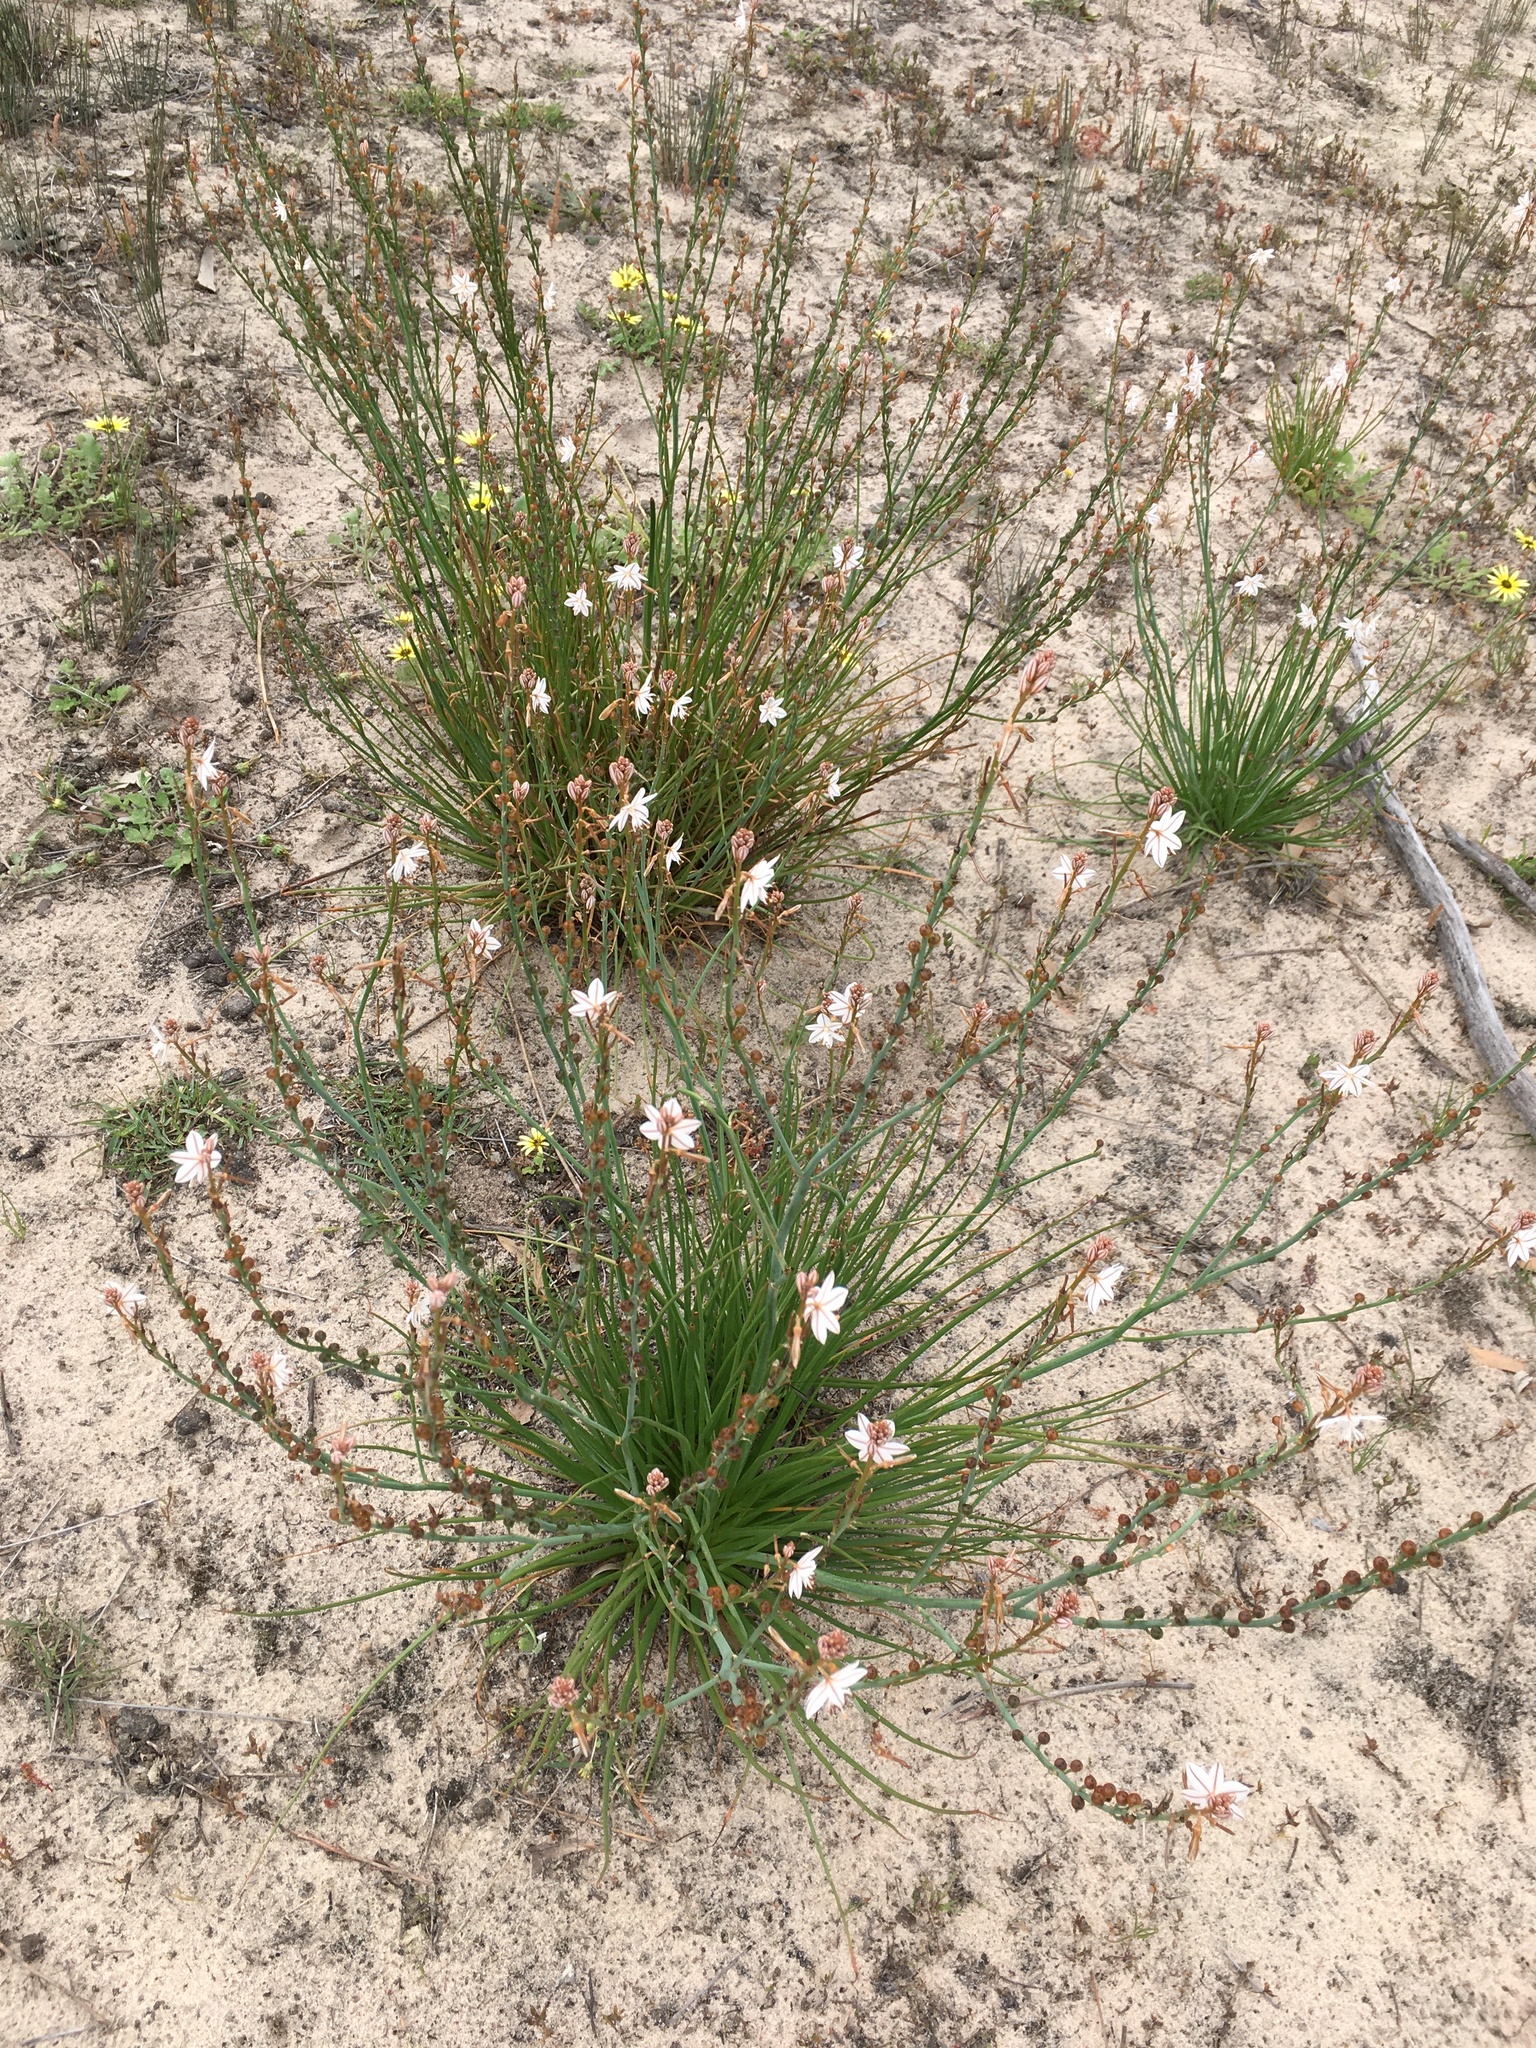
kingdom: Plantae
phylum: Tracheophyta
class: Liliopsida
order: Asparagales
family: Asphodelaceae
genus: Asphodelus
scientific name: Asphodelus fistulosus
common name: Onionweed
